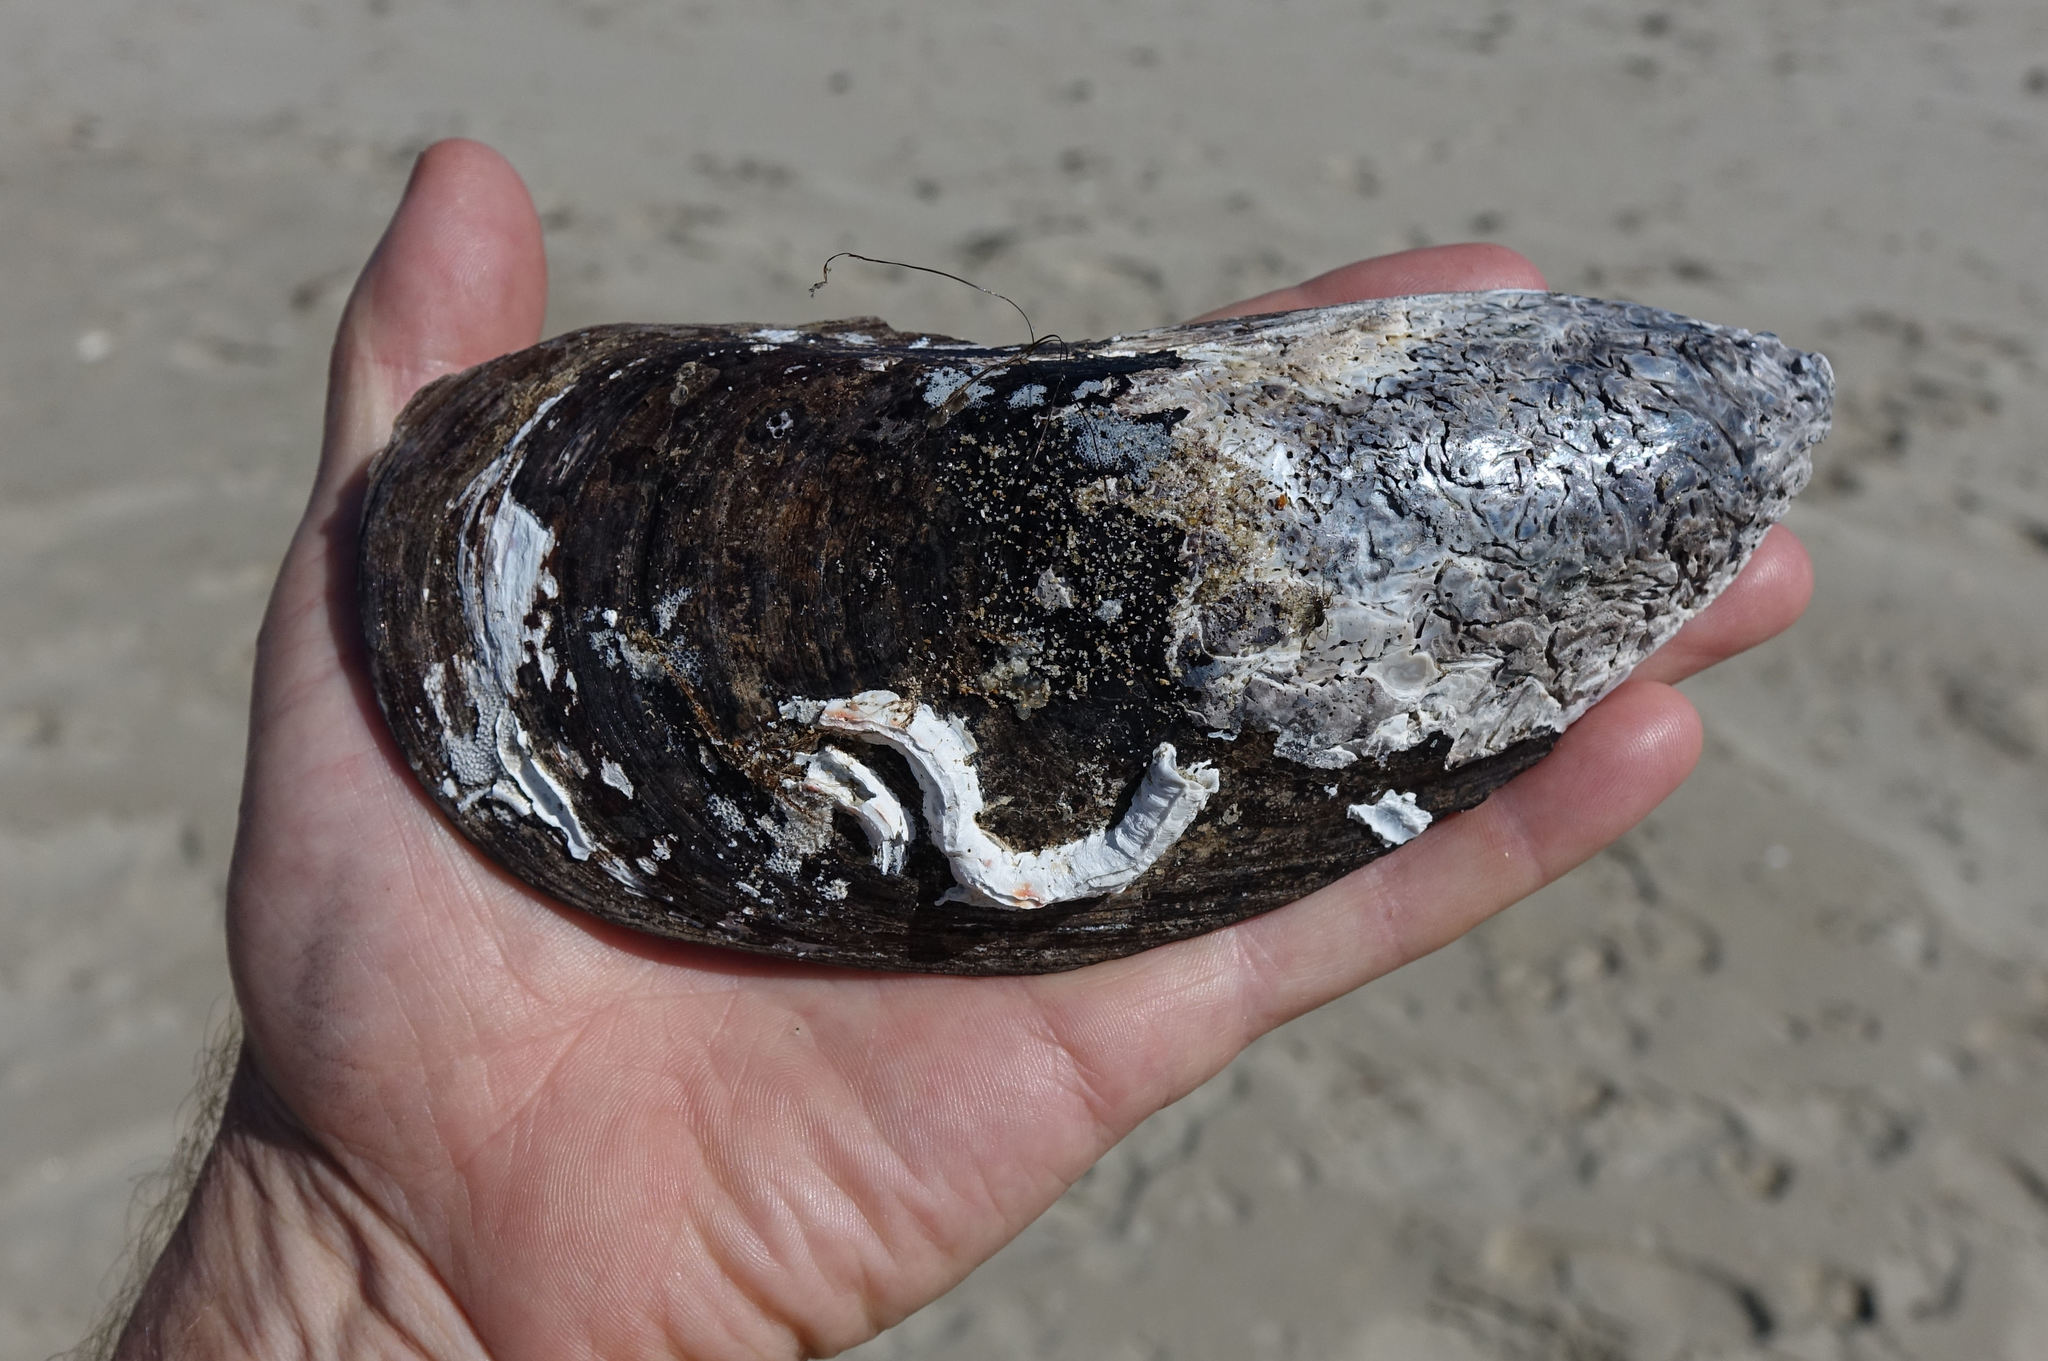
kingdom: Animalia
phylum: Mollusca
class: Bivalvia
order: Mytilida
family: Mytilidae
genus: Perna
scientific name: Perna canaliculus
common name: New zealand greenshelltm
